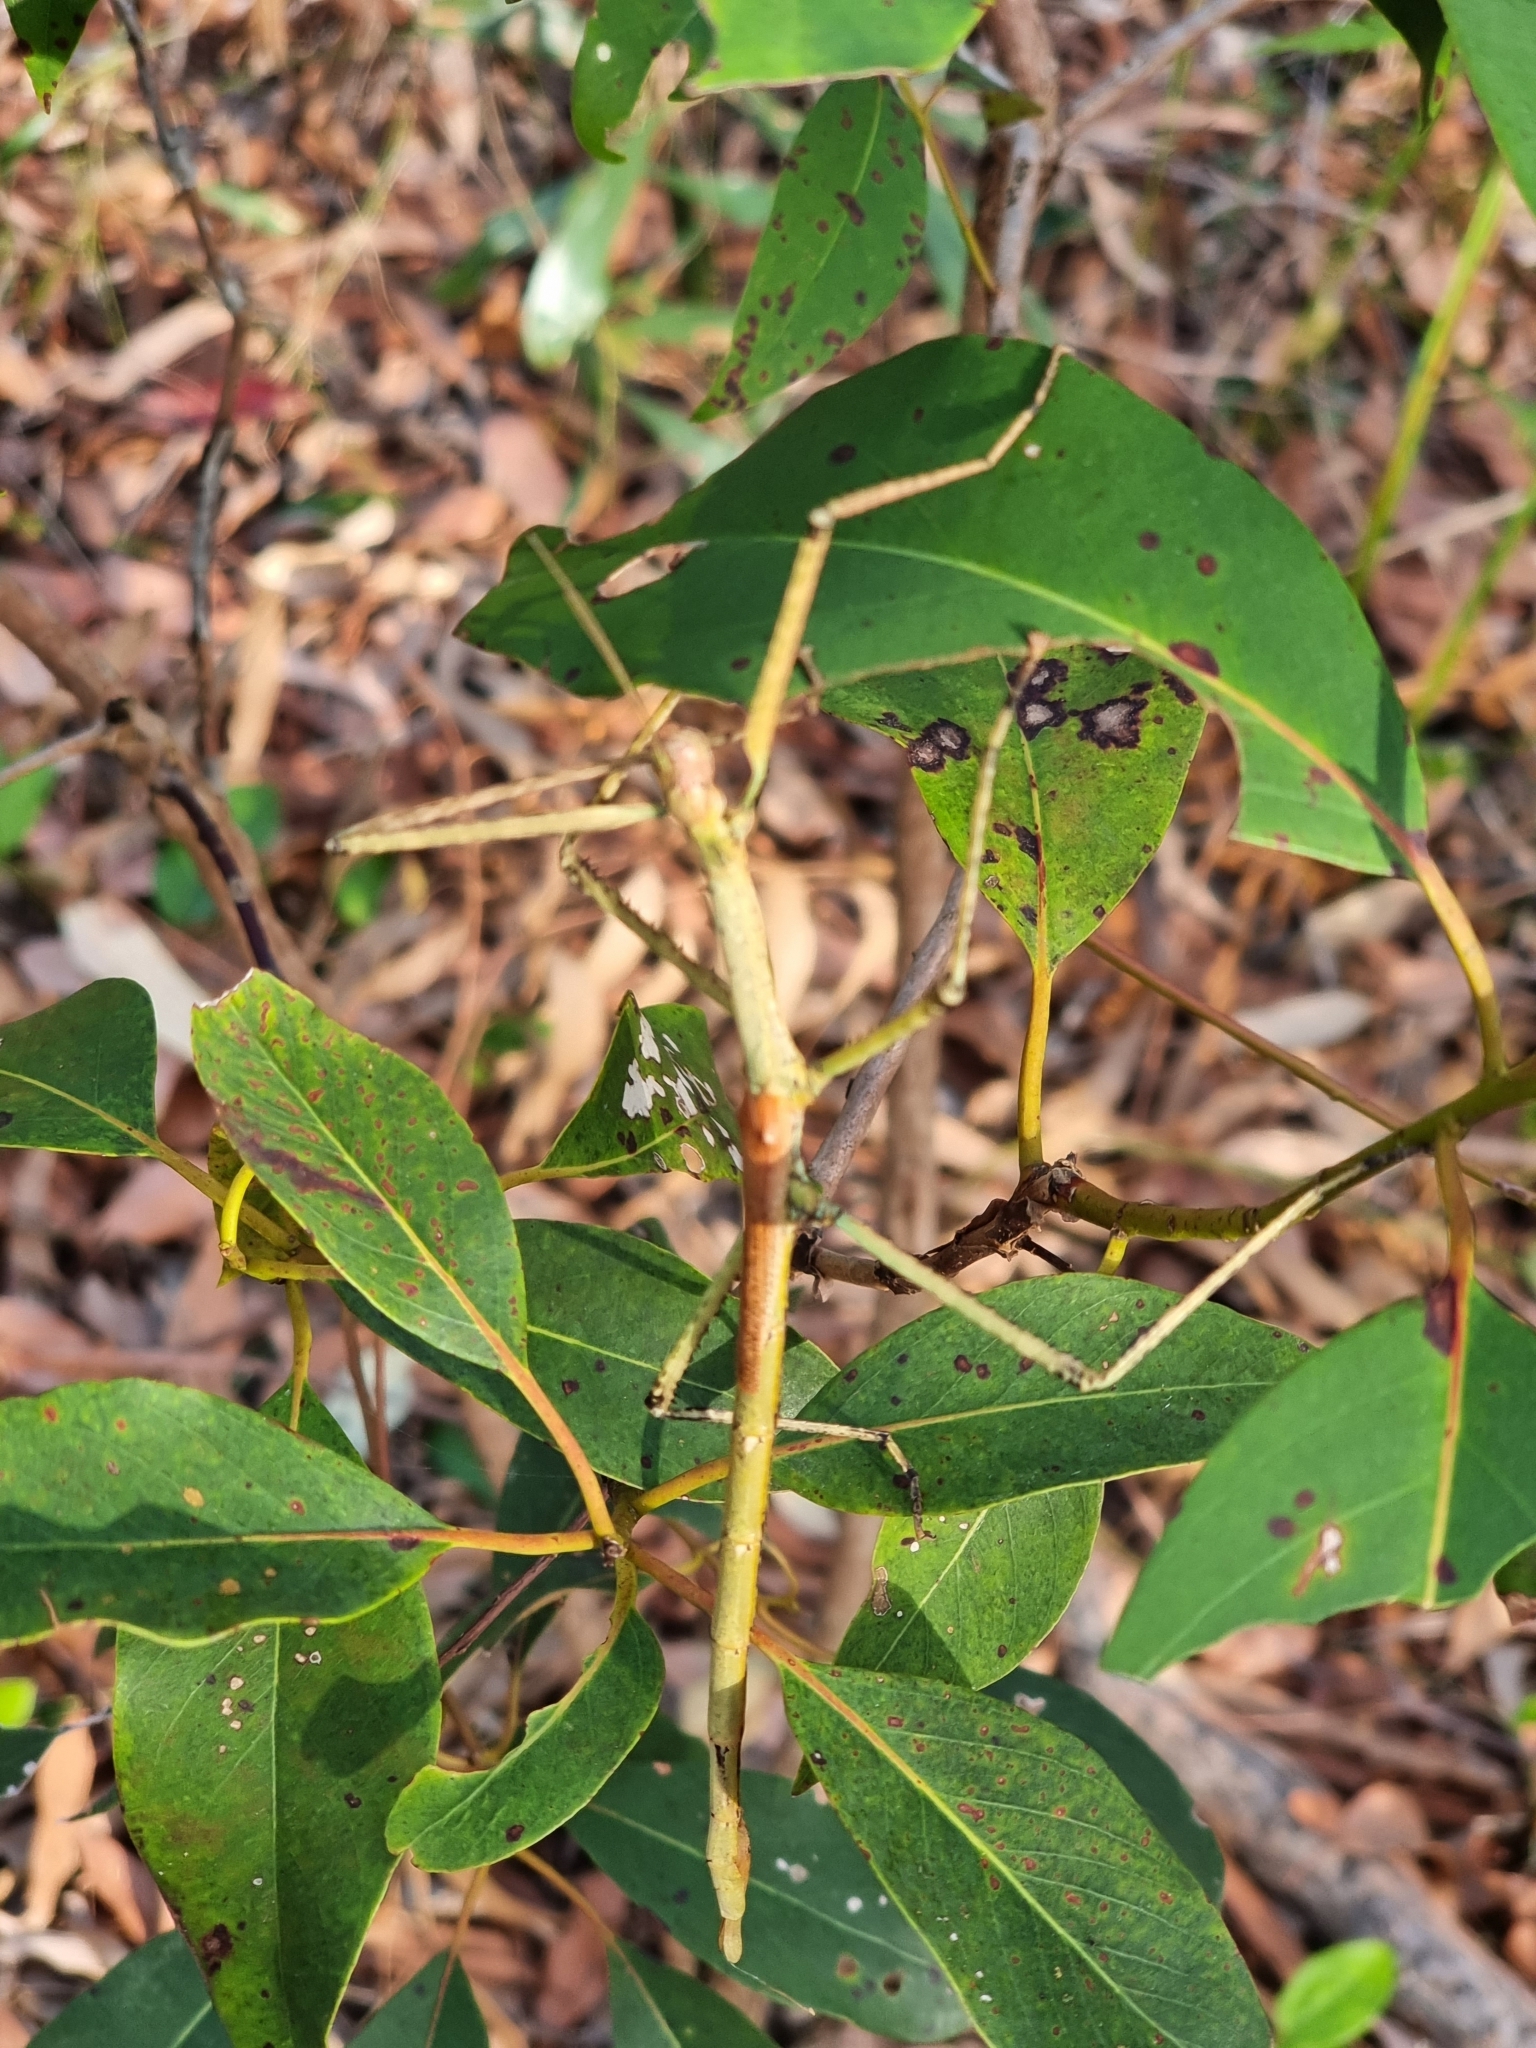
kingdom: Animalia
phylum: Arthropoda
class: Insecta
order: Phasmida
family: Phasmatidae
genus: Anchiale
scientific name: Anchiale austrotessulata
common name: Tessellated stick-insect
